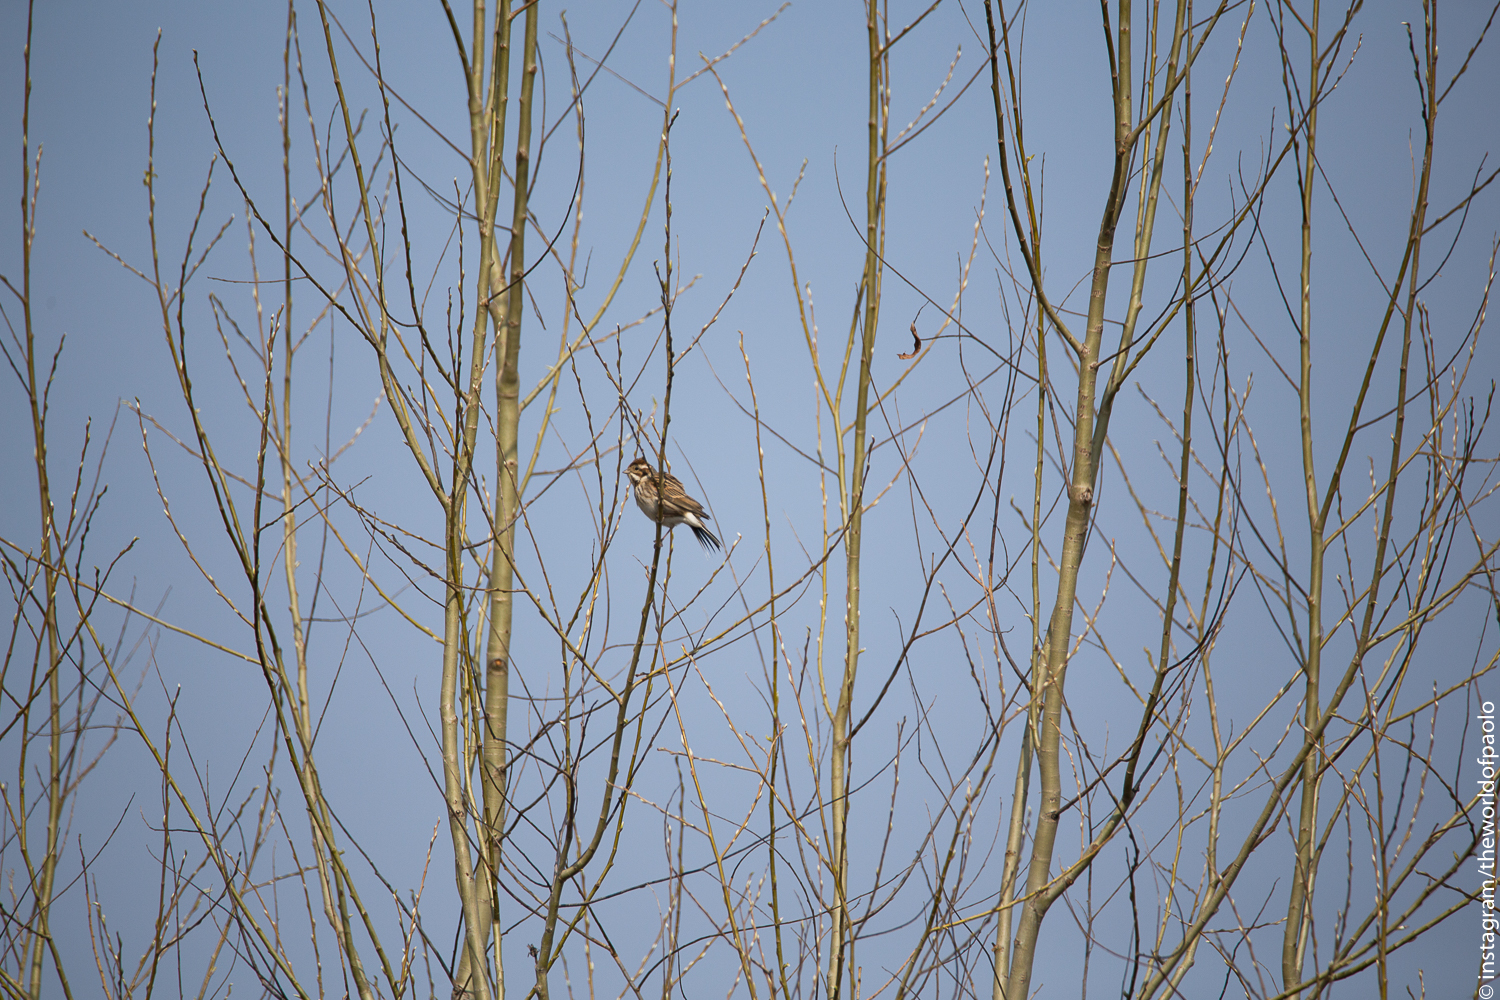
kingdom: Animalia
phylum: Chordata
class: Aves
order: Passeriformes
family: Emberizidae
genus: Emberiza
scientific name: Emberiza schoeniclus
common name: Reed bunting
